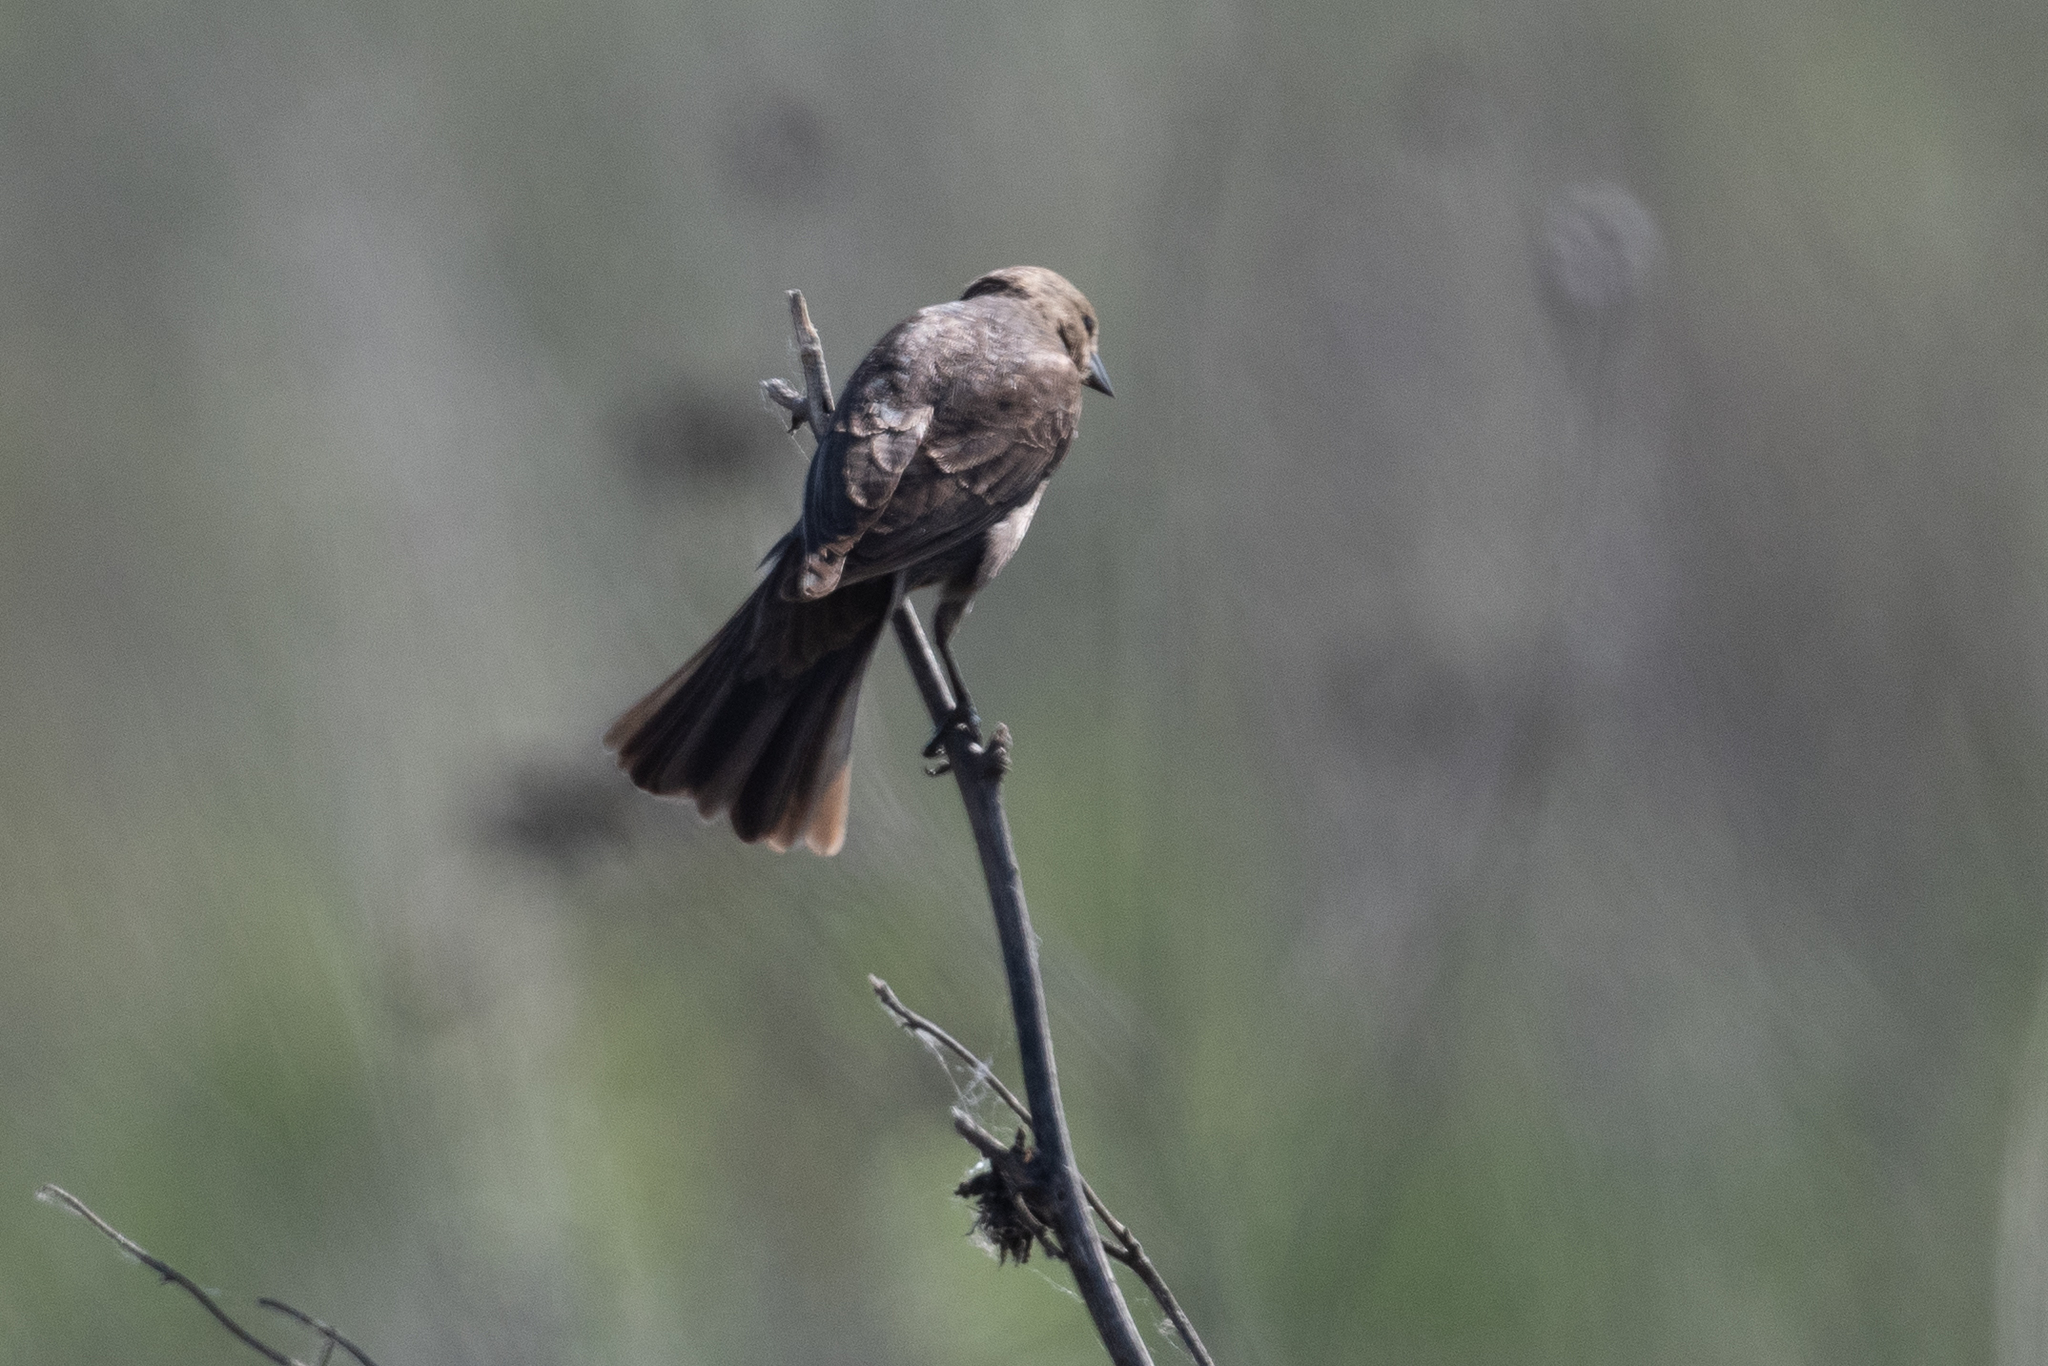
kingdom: Animalia
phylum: Chordata
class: Aves
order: Passeriformes
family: Icteridae
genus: Molothrus
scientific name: Molothrus ater
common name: Brown-headed cowbird
